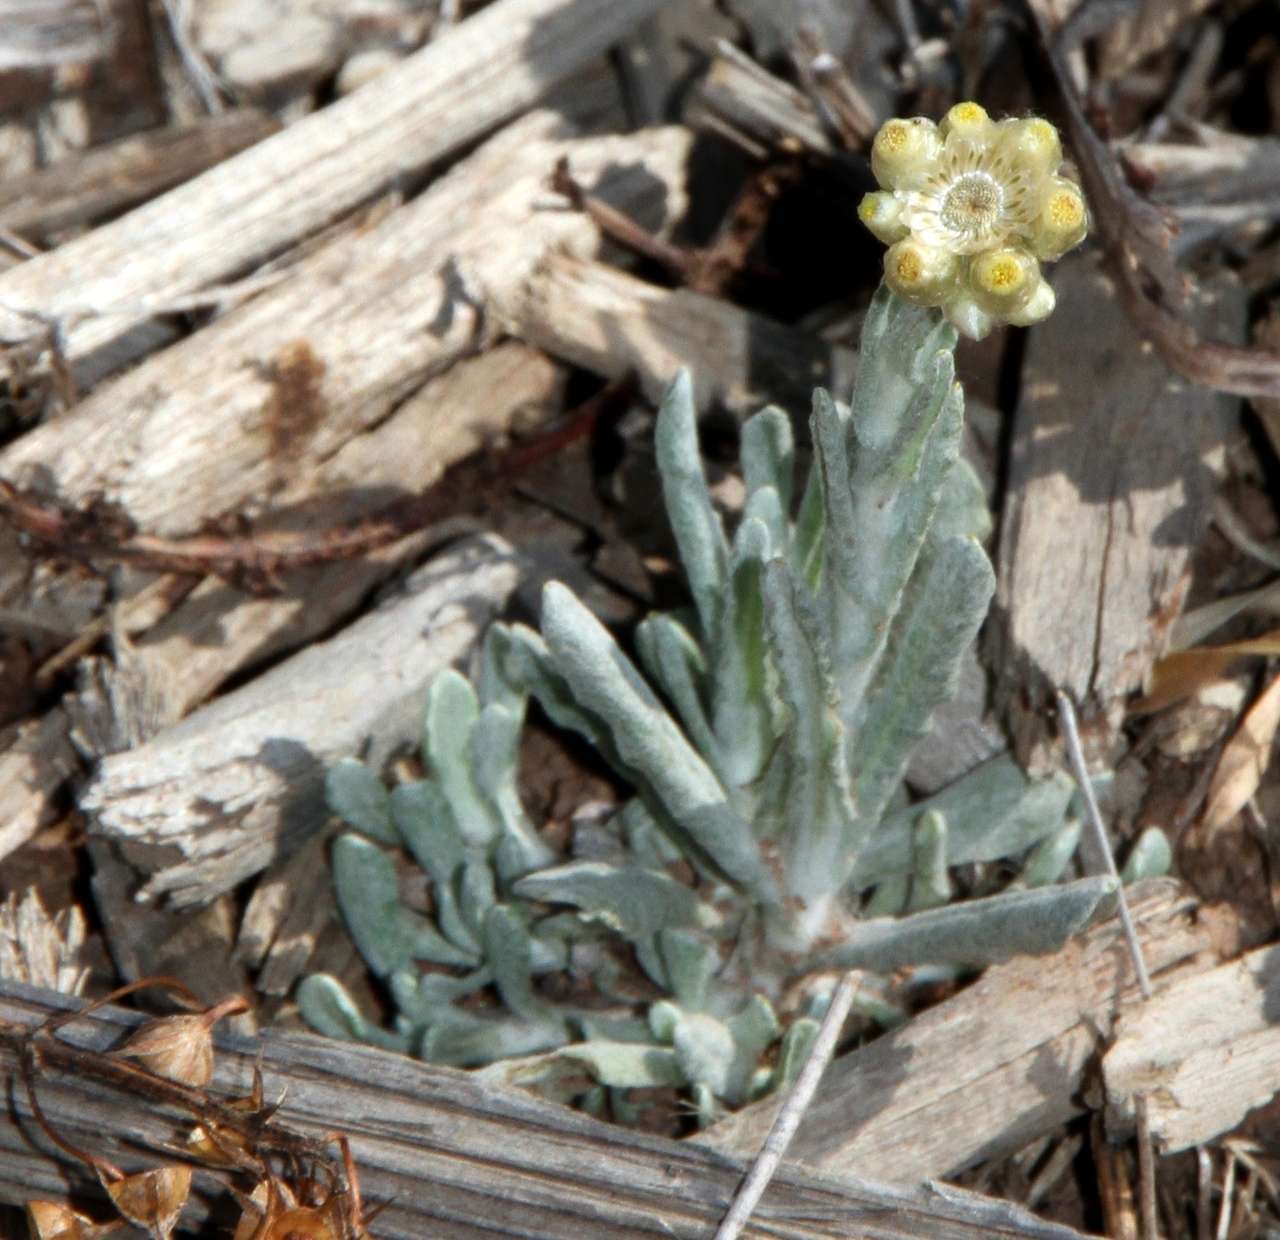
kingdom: Plantae
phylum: Tracheophyta
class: Magnoliopsida
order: Asterales
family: Asteraceae
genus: Helichrysum
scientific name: Helichrysum luteoalbum
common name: Daisy
